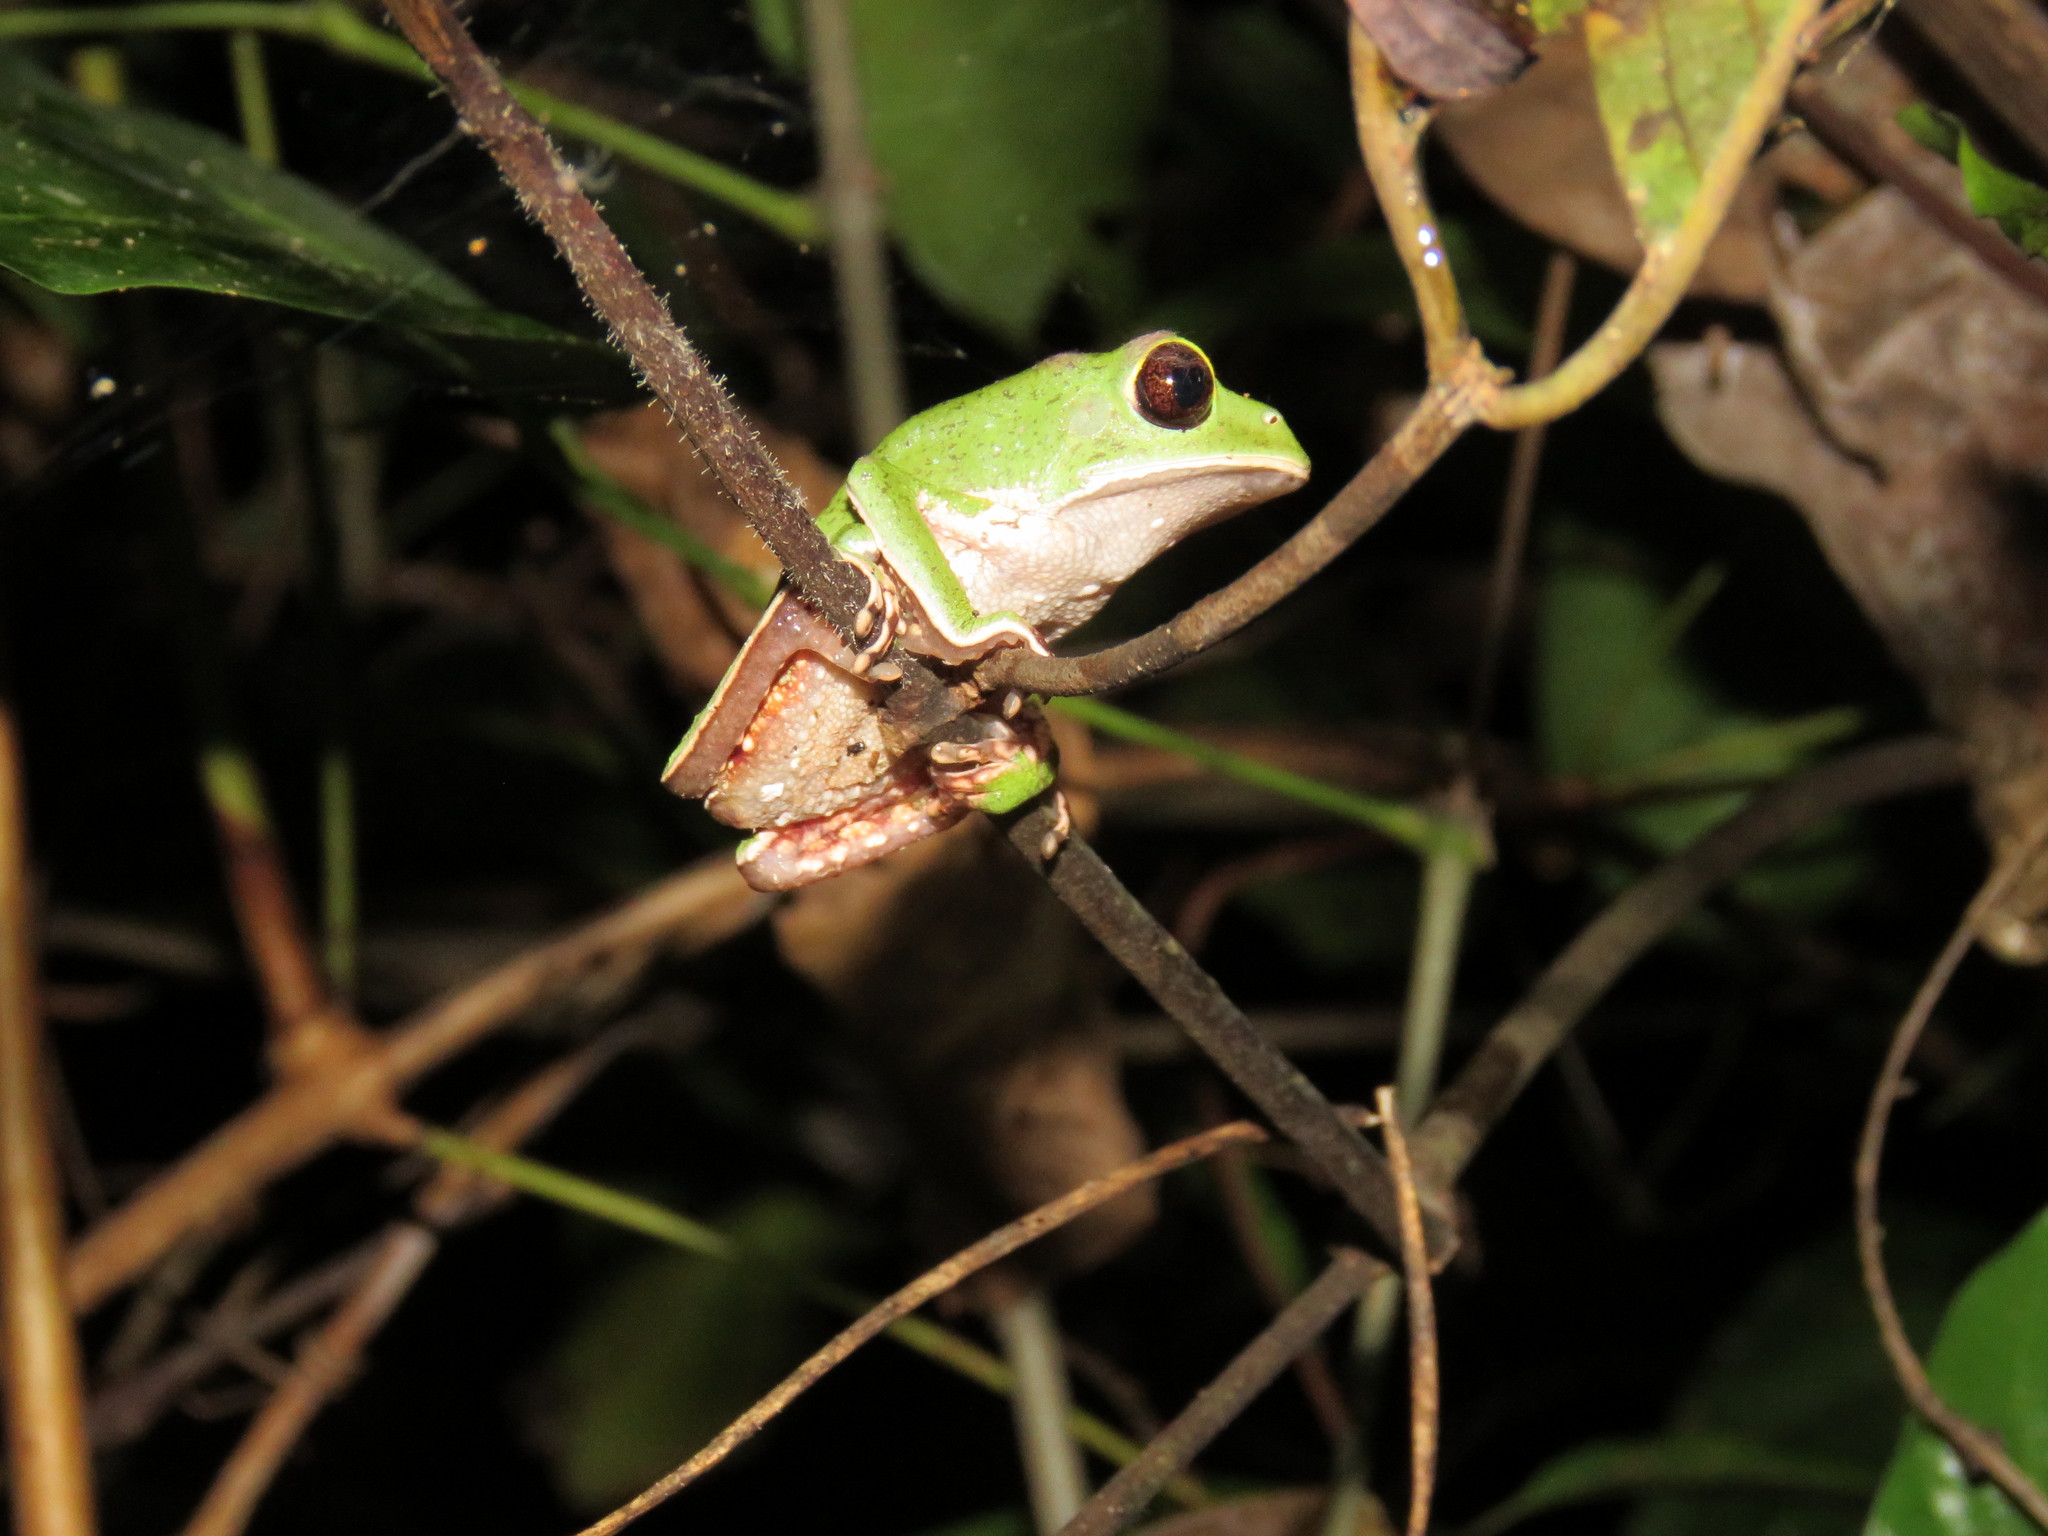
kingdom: Animalia
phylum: Chordata
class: Amphibia
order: Anura
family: Phyllomedusidae
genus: Phyllomedusa
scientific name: Phyllomedusa tarsius
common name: Brownbelly leaf frog
